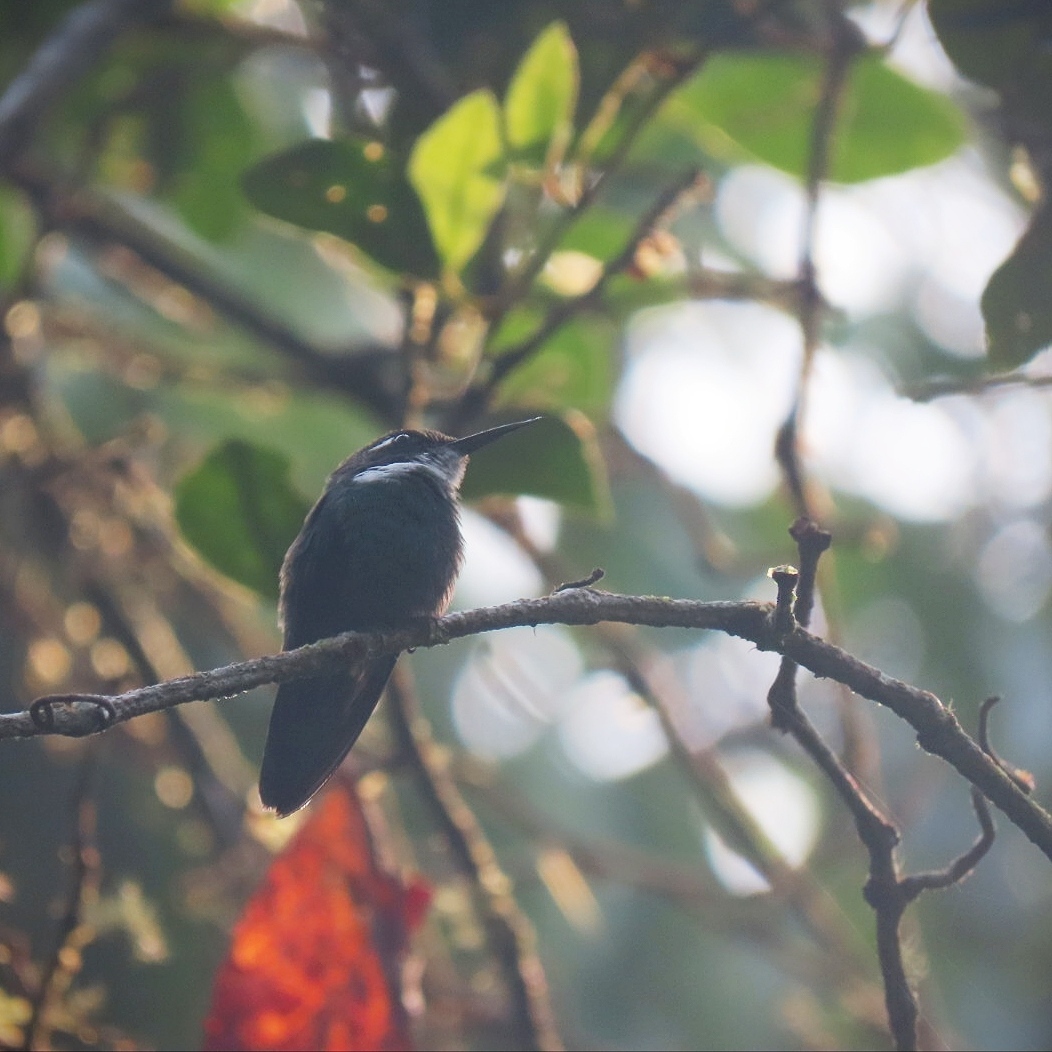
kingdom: Animalia
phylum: Chordata
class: Aves
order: Apodiformes
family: Trochilidae
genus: Schistes
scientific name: Schistes geoffroyi
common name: Wedge-billed hummingbird
